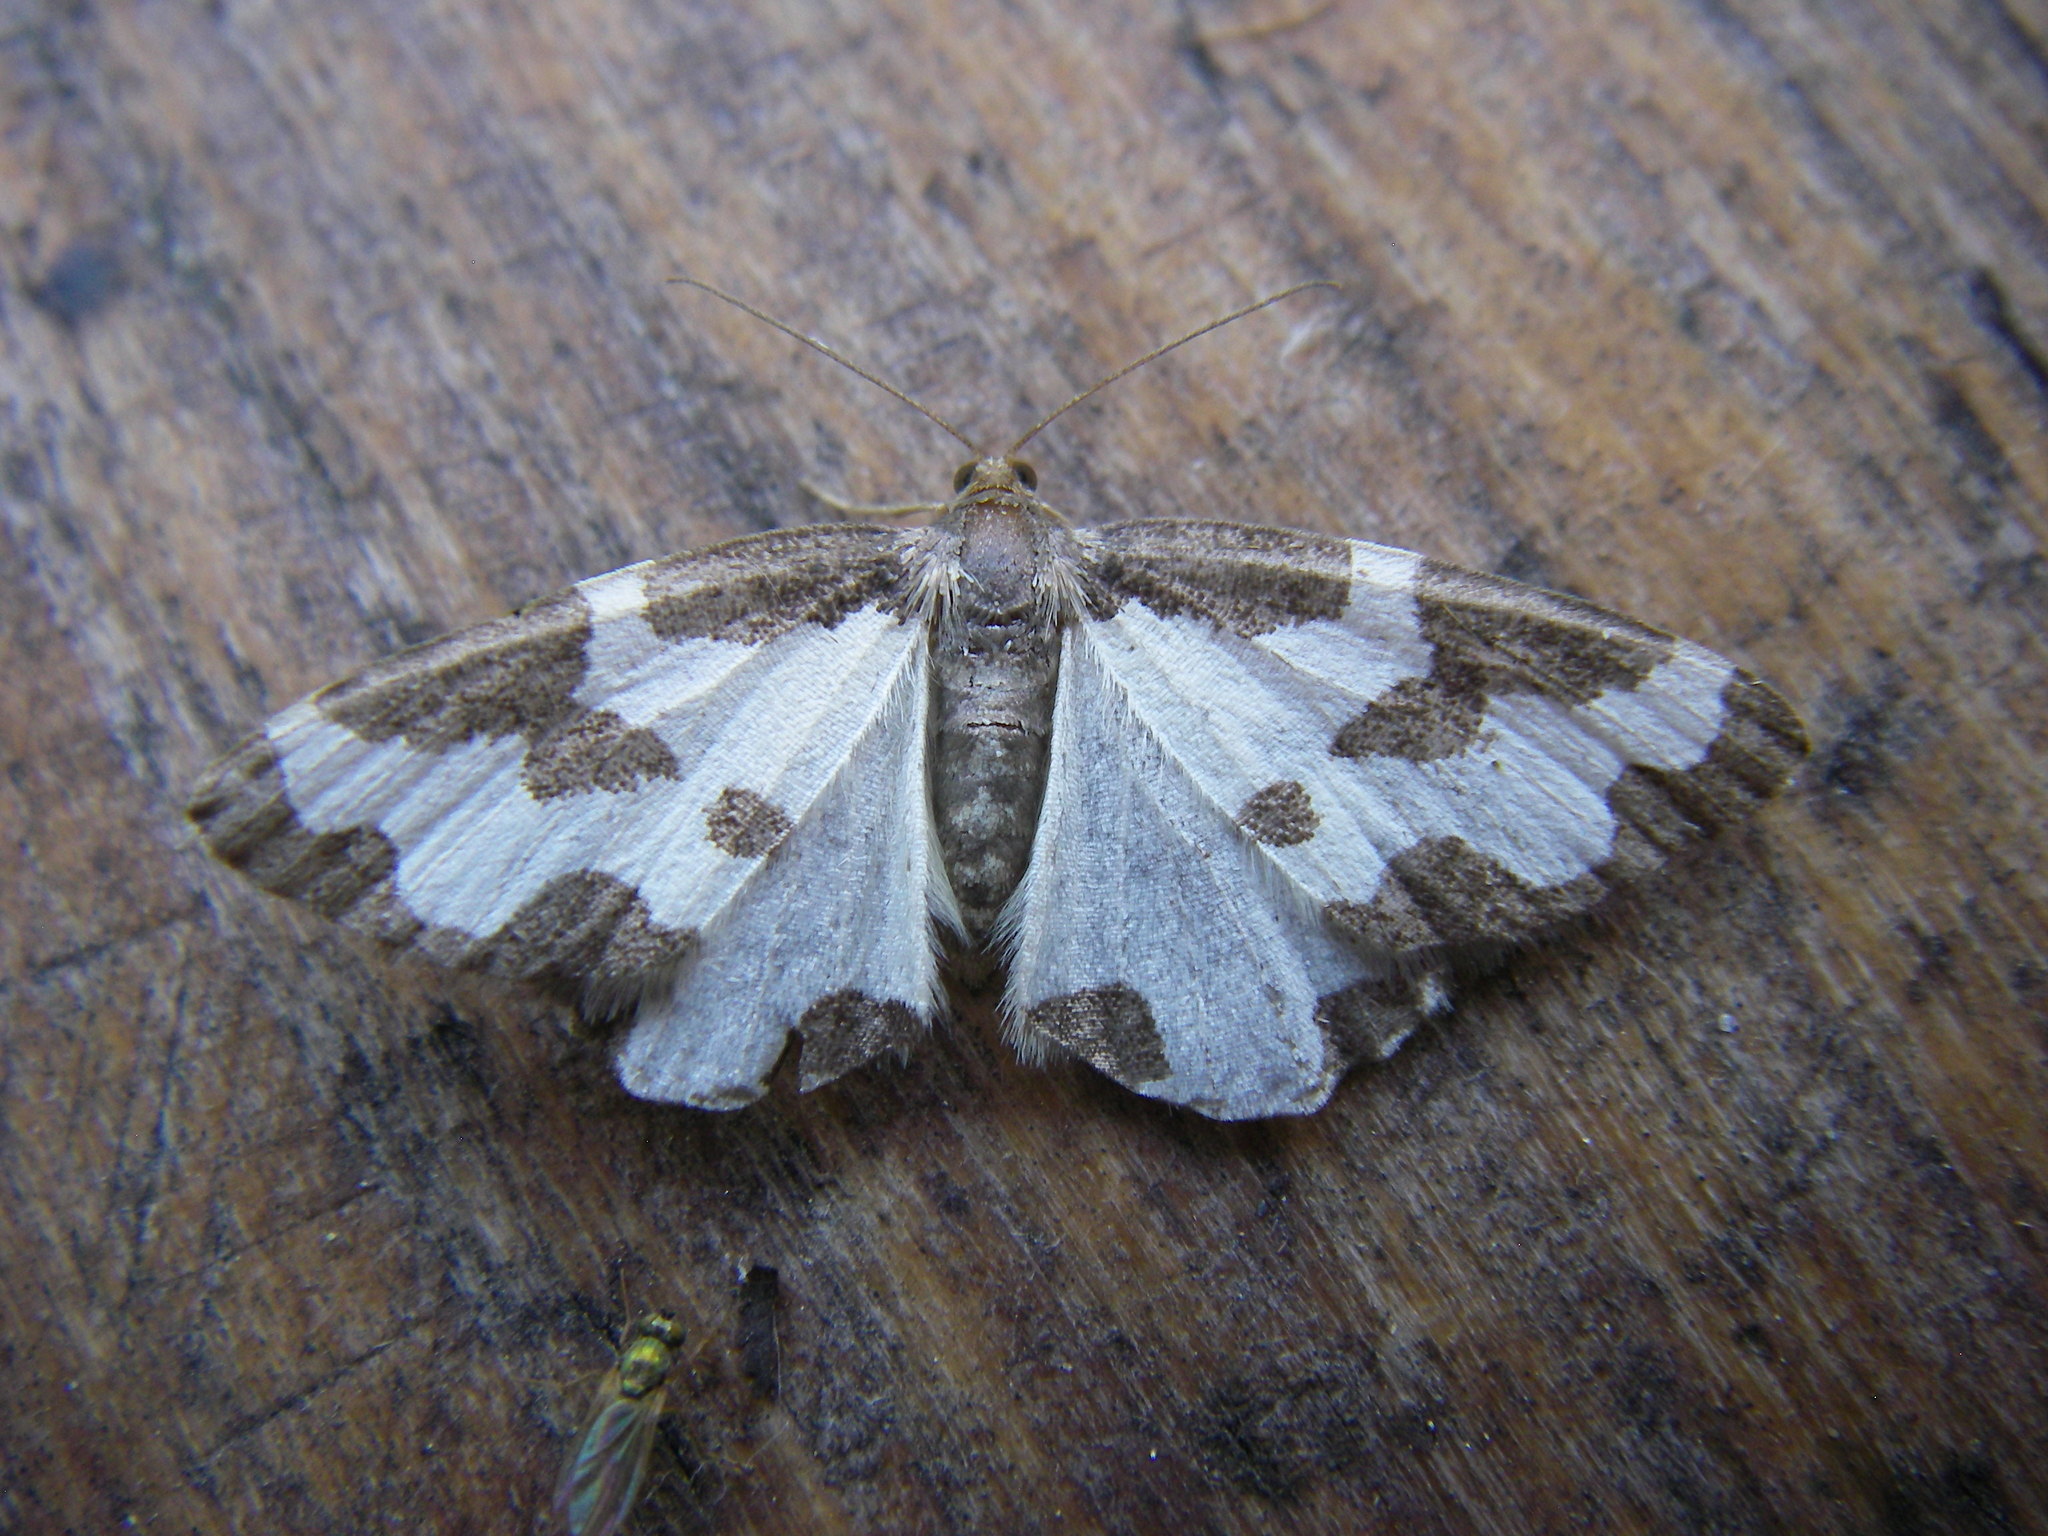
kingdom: Animalia
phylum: Arthropoda
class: Insecta
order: Lepidoptera
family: Geometridae
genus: Lomaspilis
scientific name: Lomaspilis marginata
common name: Clouded border
